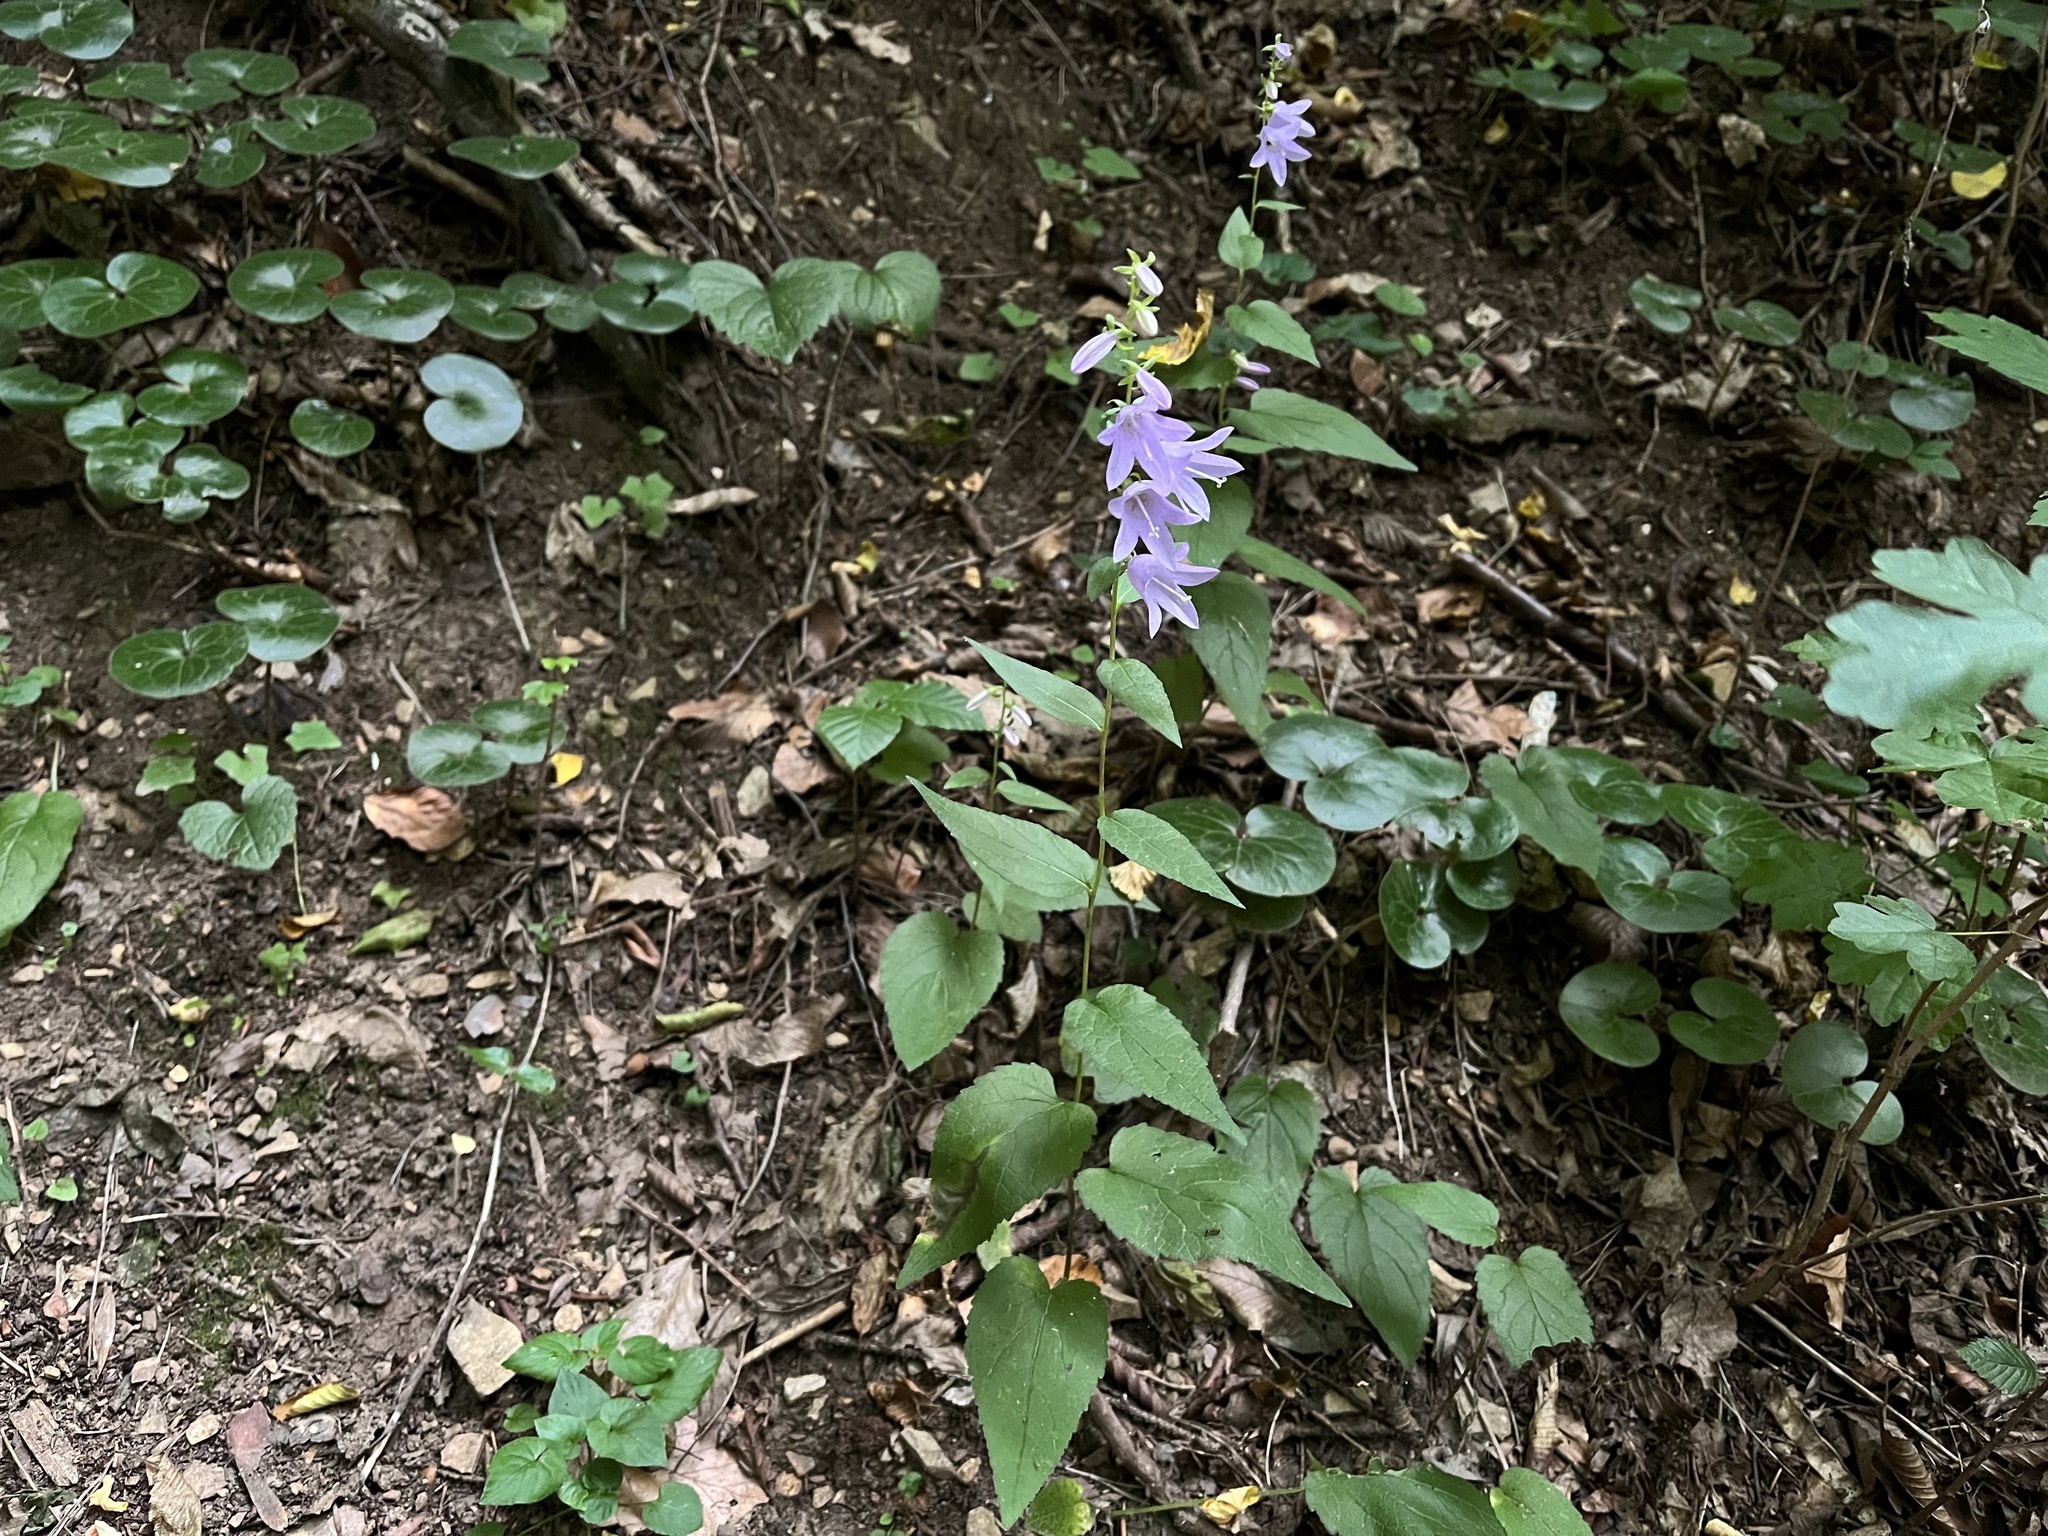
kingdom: Plantae
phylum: Tracheophyta
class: Magnoliopsida
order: Asterales
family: Campanulaceae
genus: Campanula
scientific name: Campanula rapunculoides
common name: Creeping bellflower
